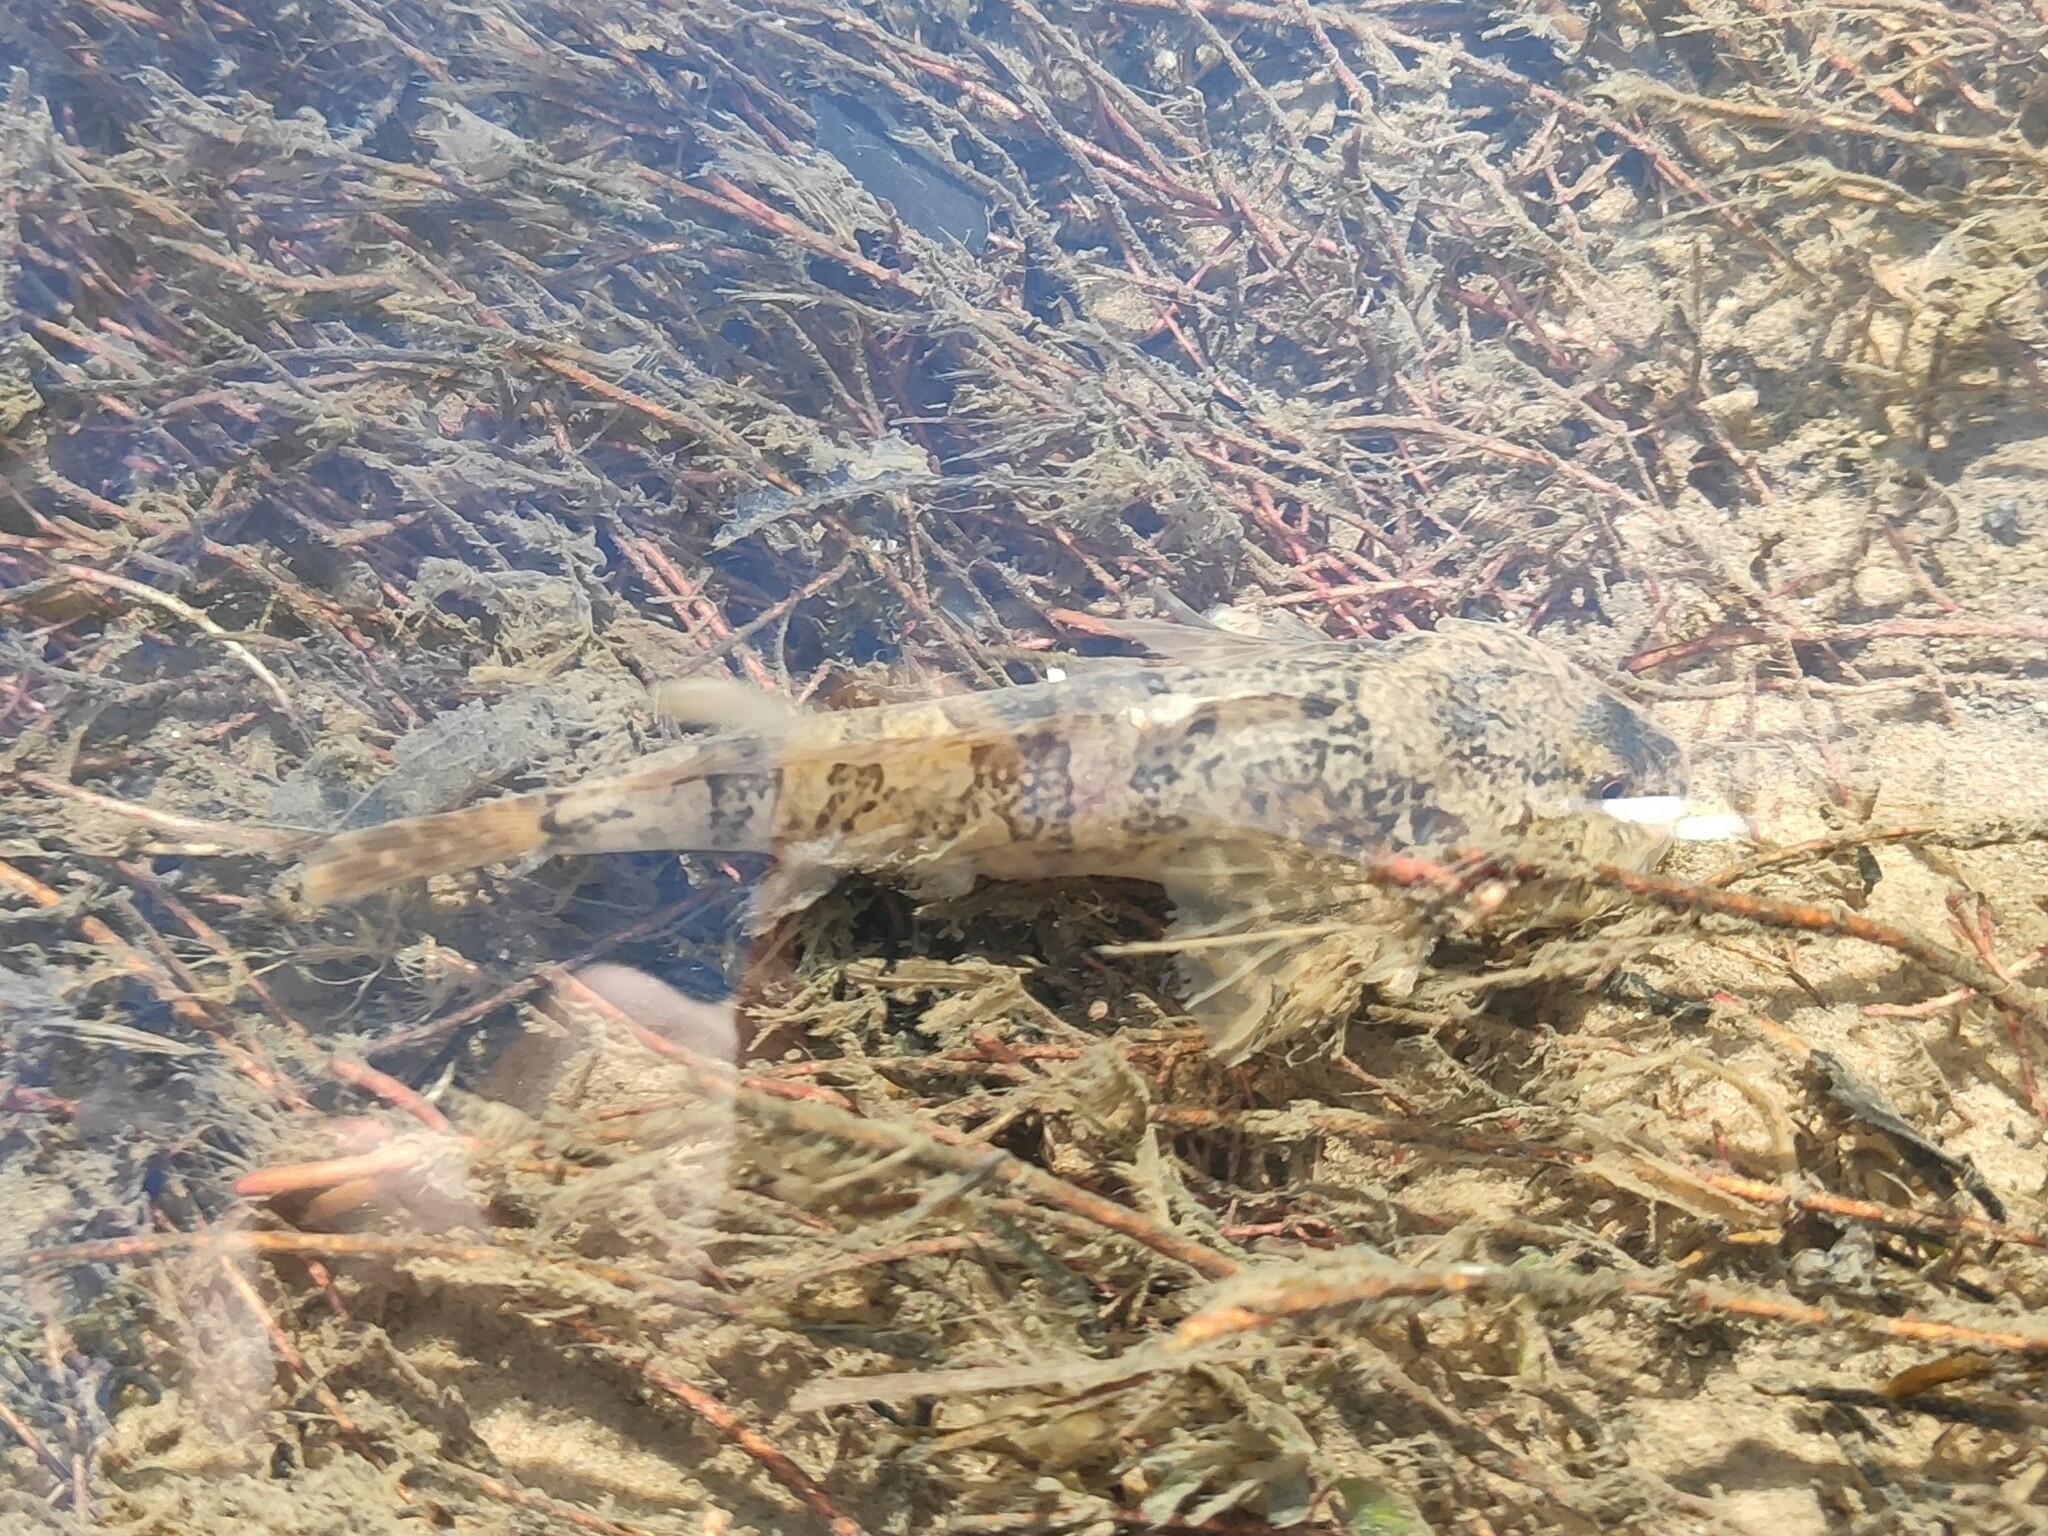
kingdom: Animalia
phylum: Chordata
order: Scorpaeniformes
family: Cottidae
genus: Cottus
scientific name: Cottus perifretum
